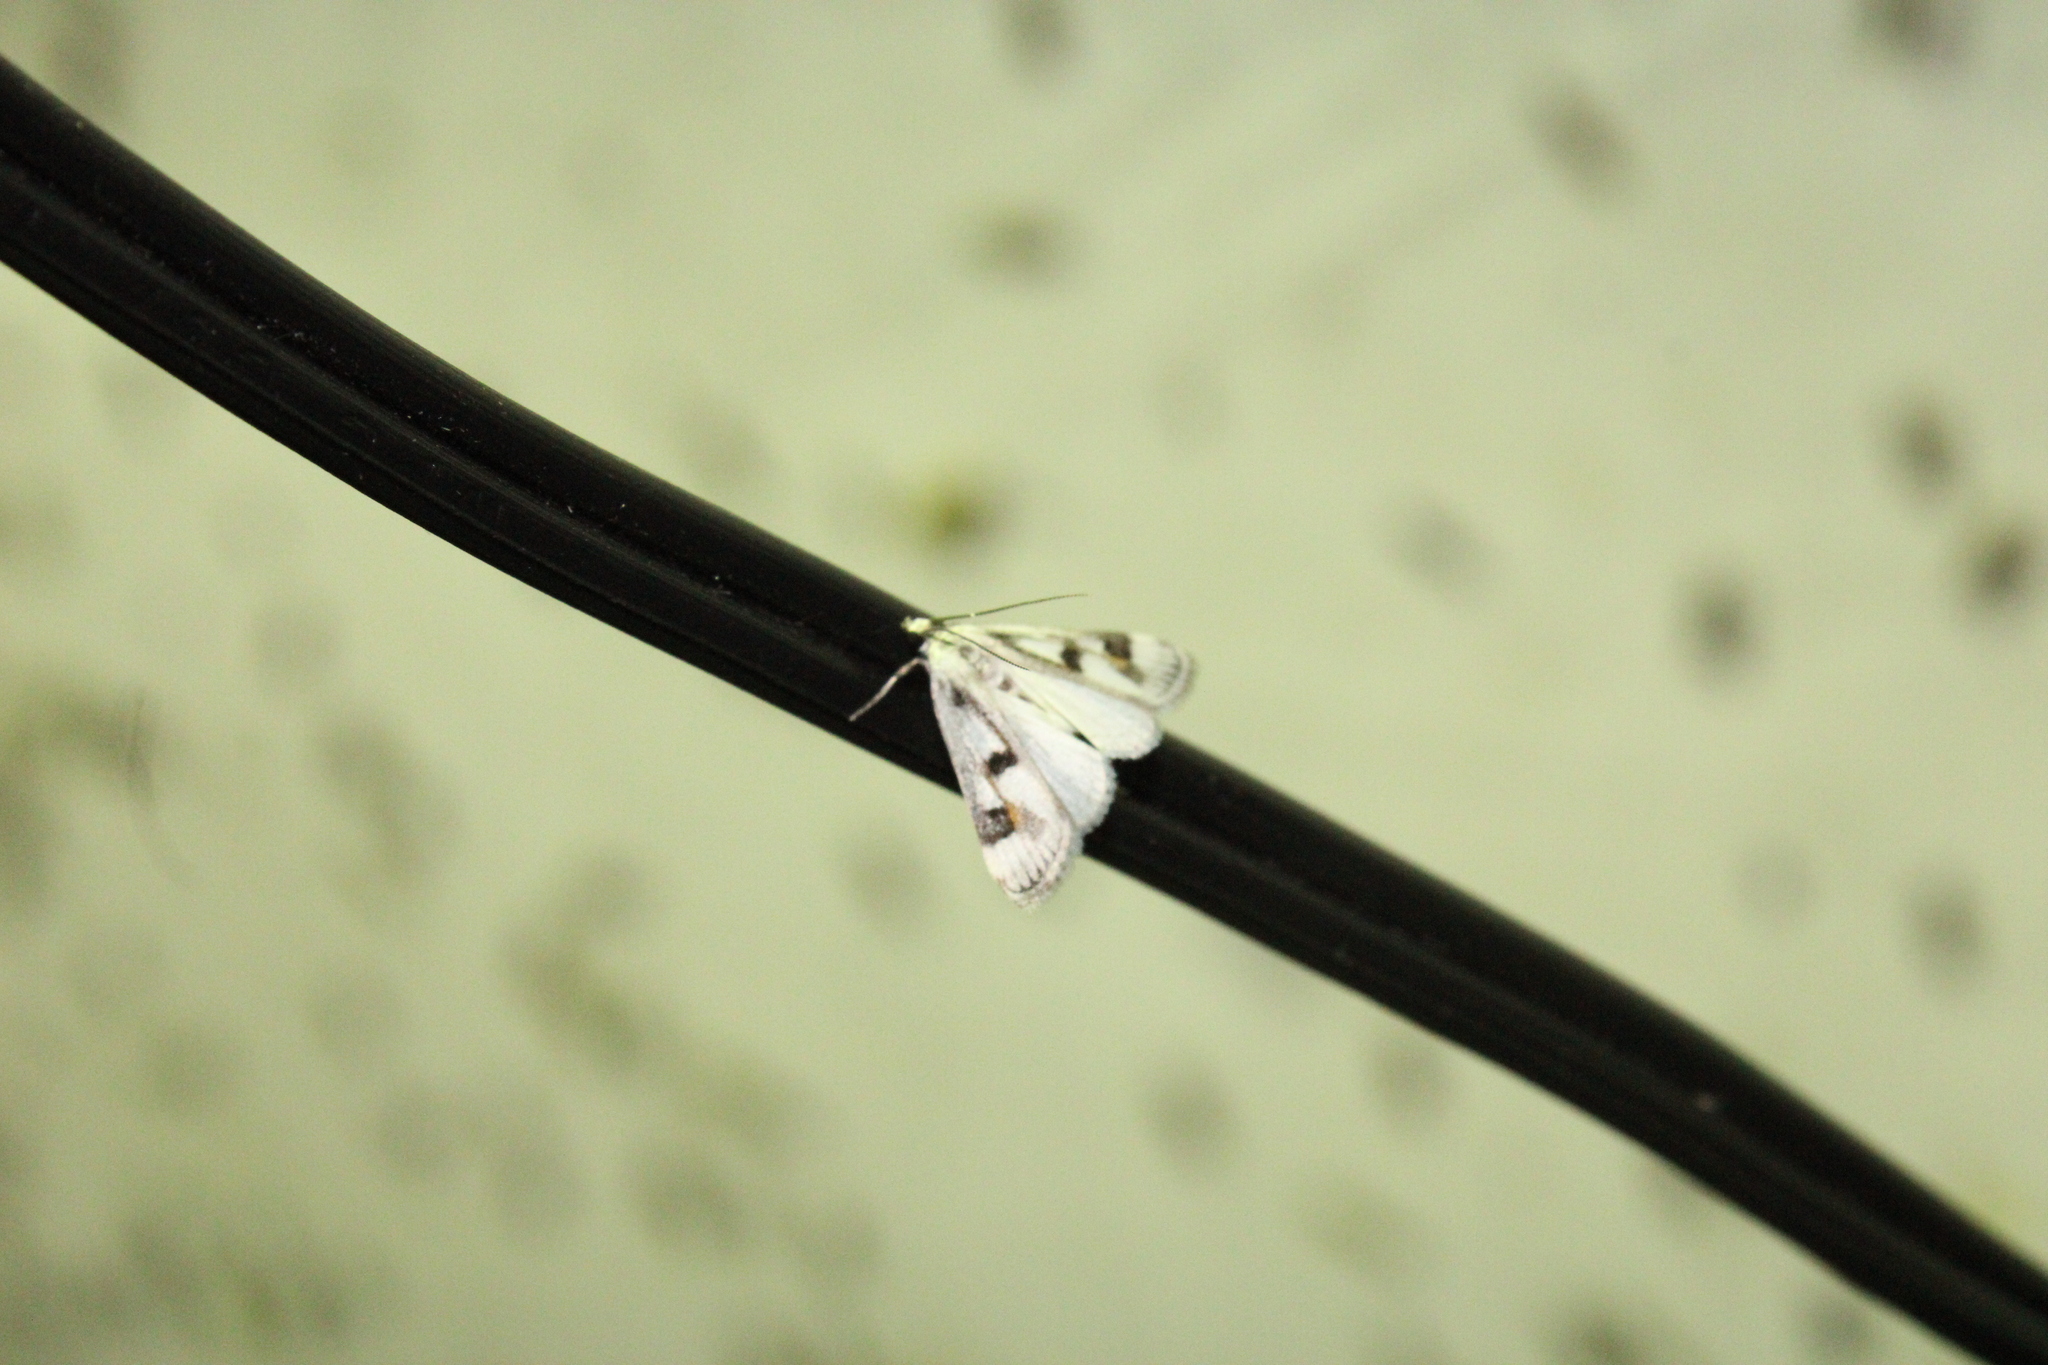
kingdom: Animalia
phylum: Arthropoda
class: Insecta
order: Lepidoptera
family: Crambidae
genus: Parapoynx
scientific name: Parapoynx maculalis
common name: Polymorphic pondweed moth
